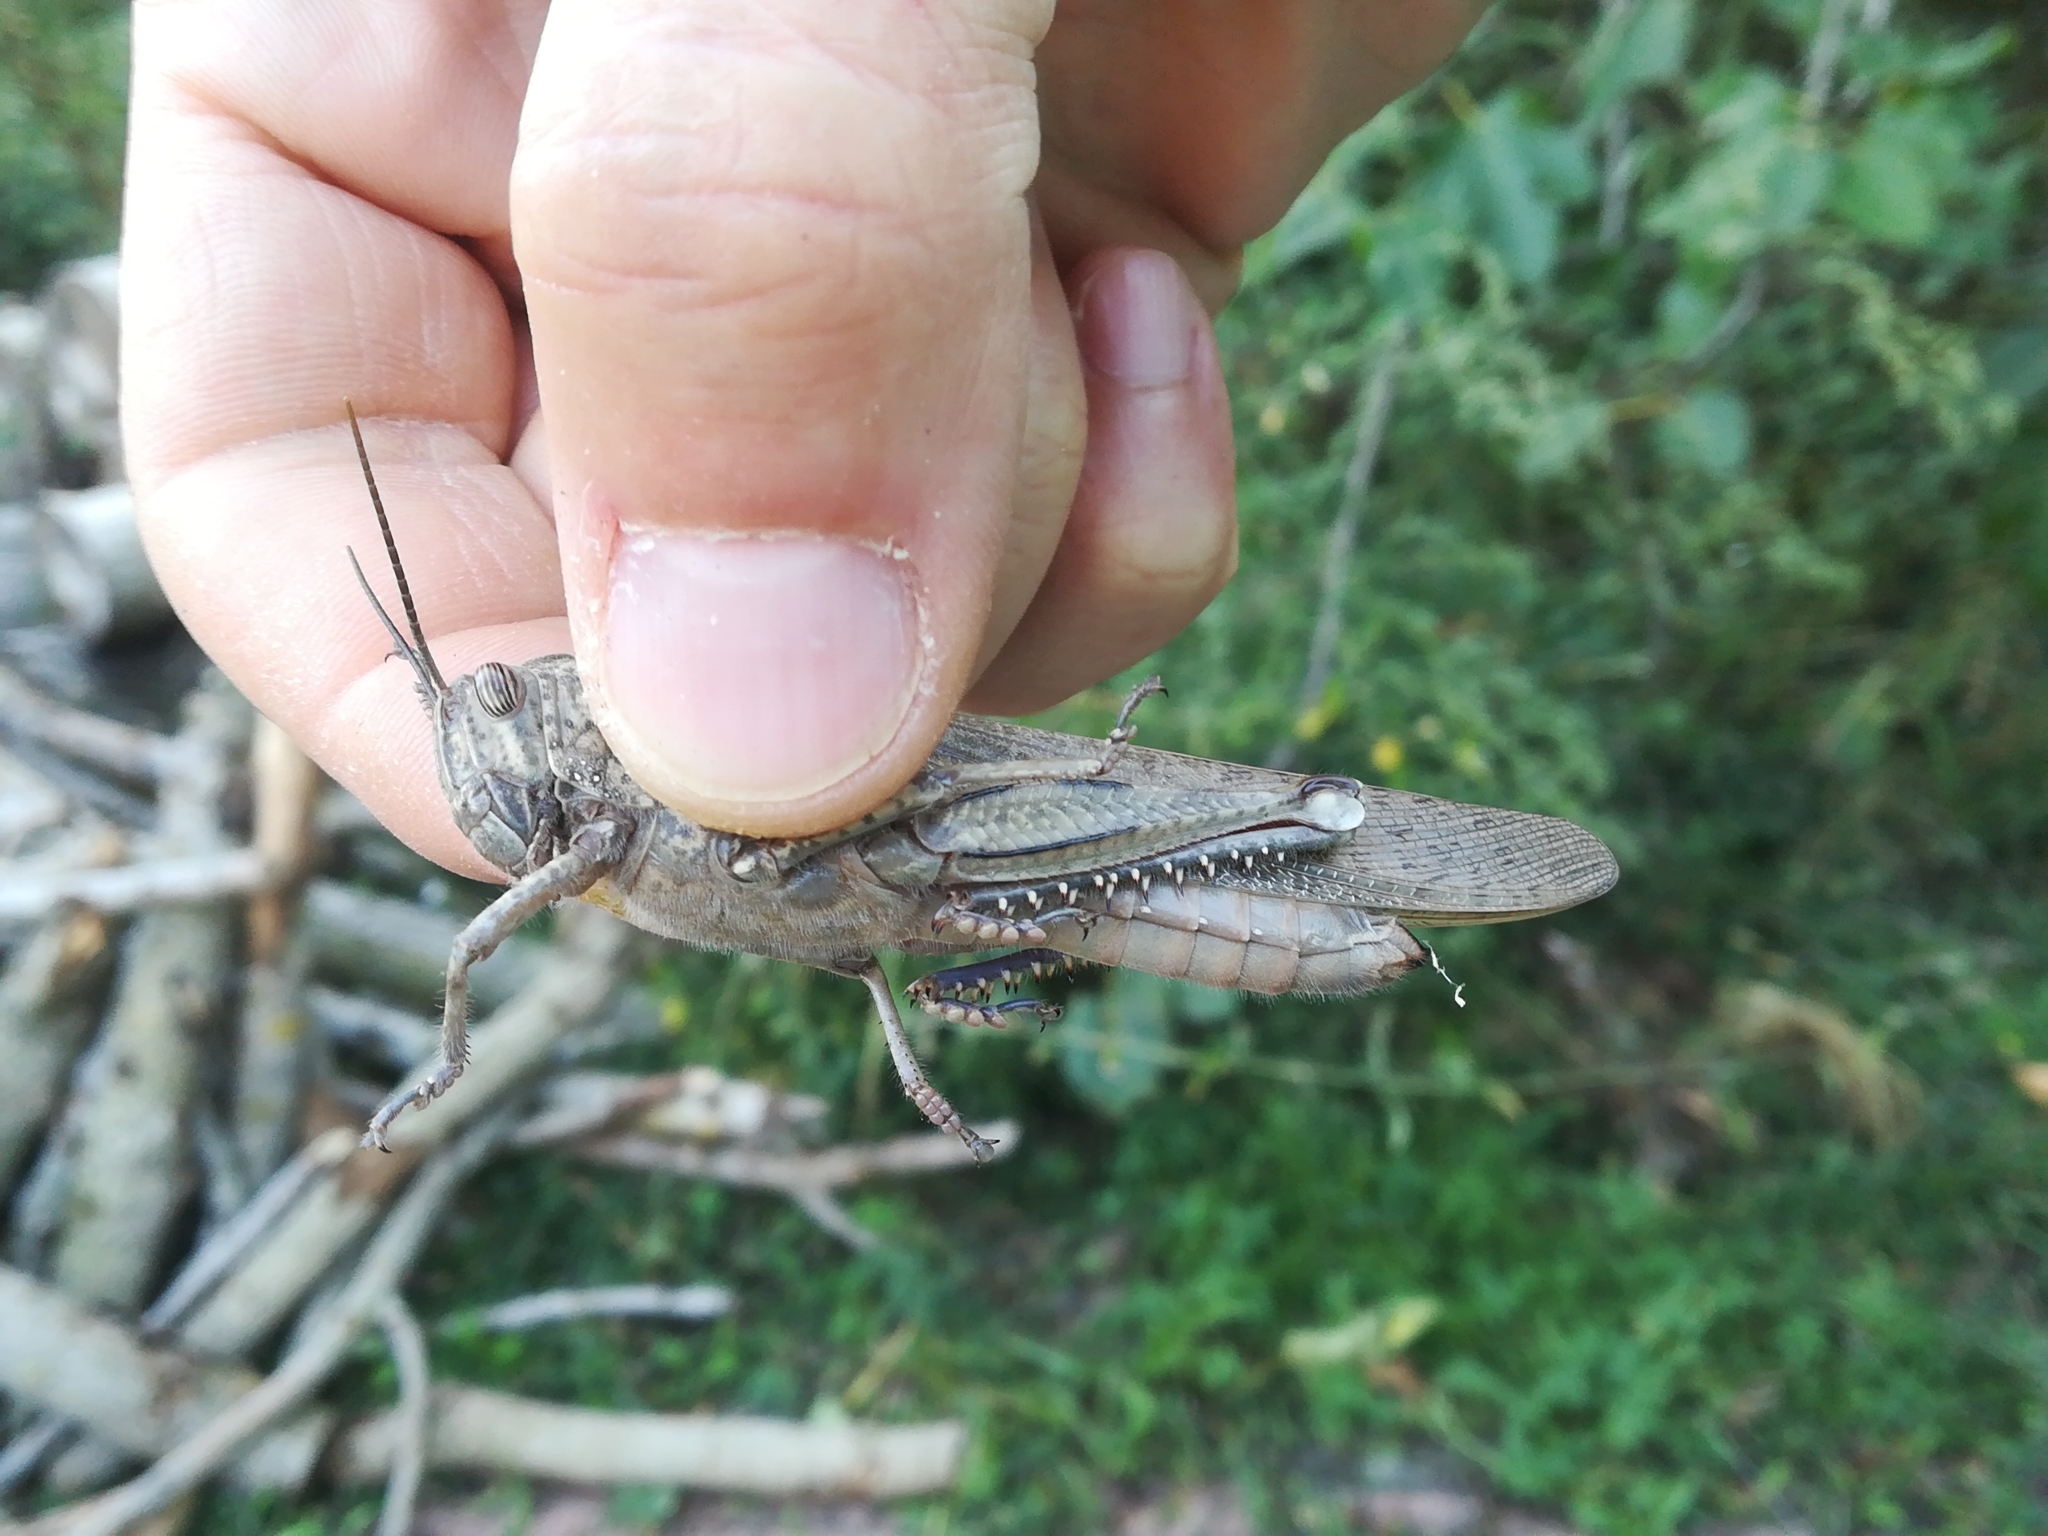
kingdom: Animalia
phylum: Arthropoda
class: Insecta
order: Orthoptera
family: Acrididae
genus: Anacridium
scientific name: Anacridium aegyptium
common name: Egyptian grasshopper
